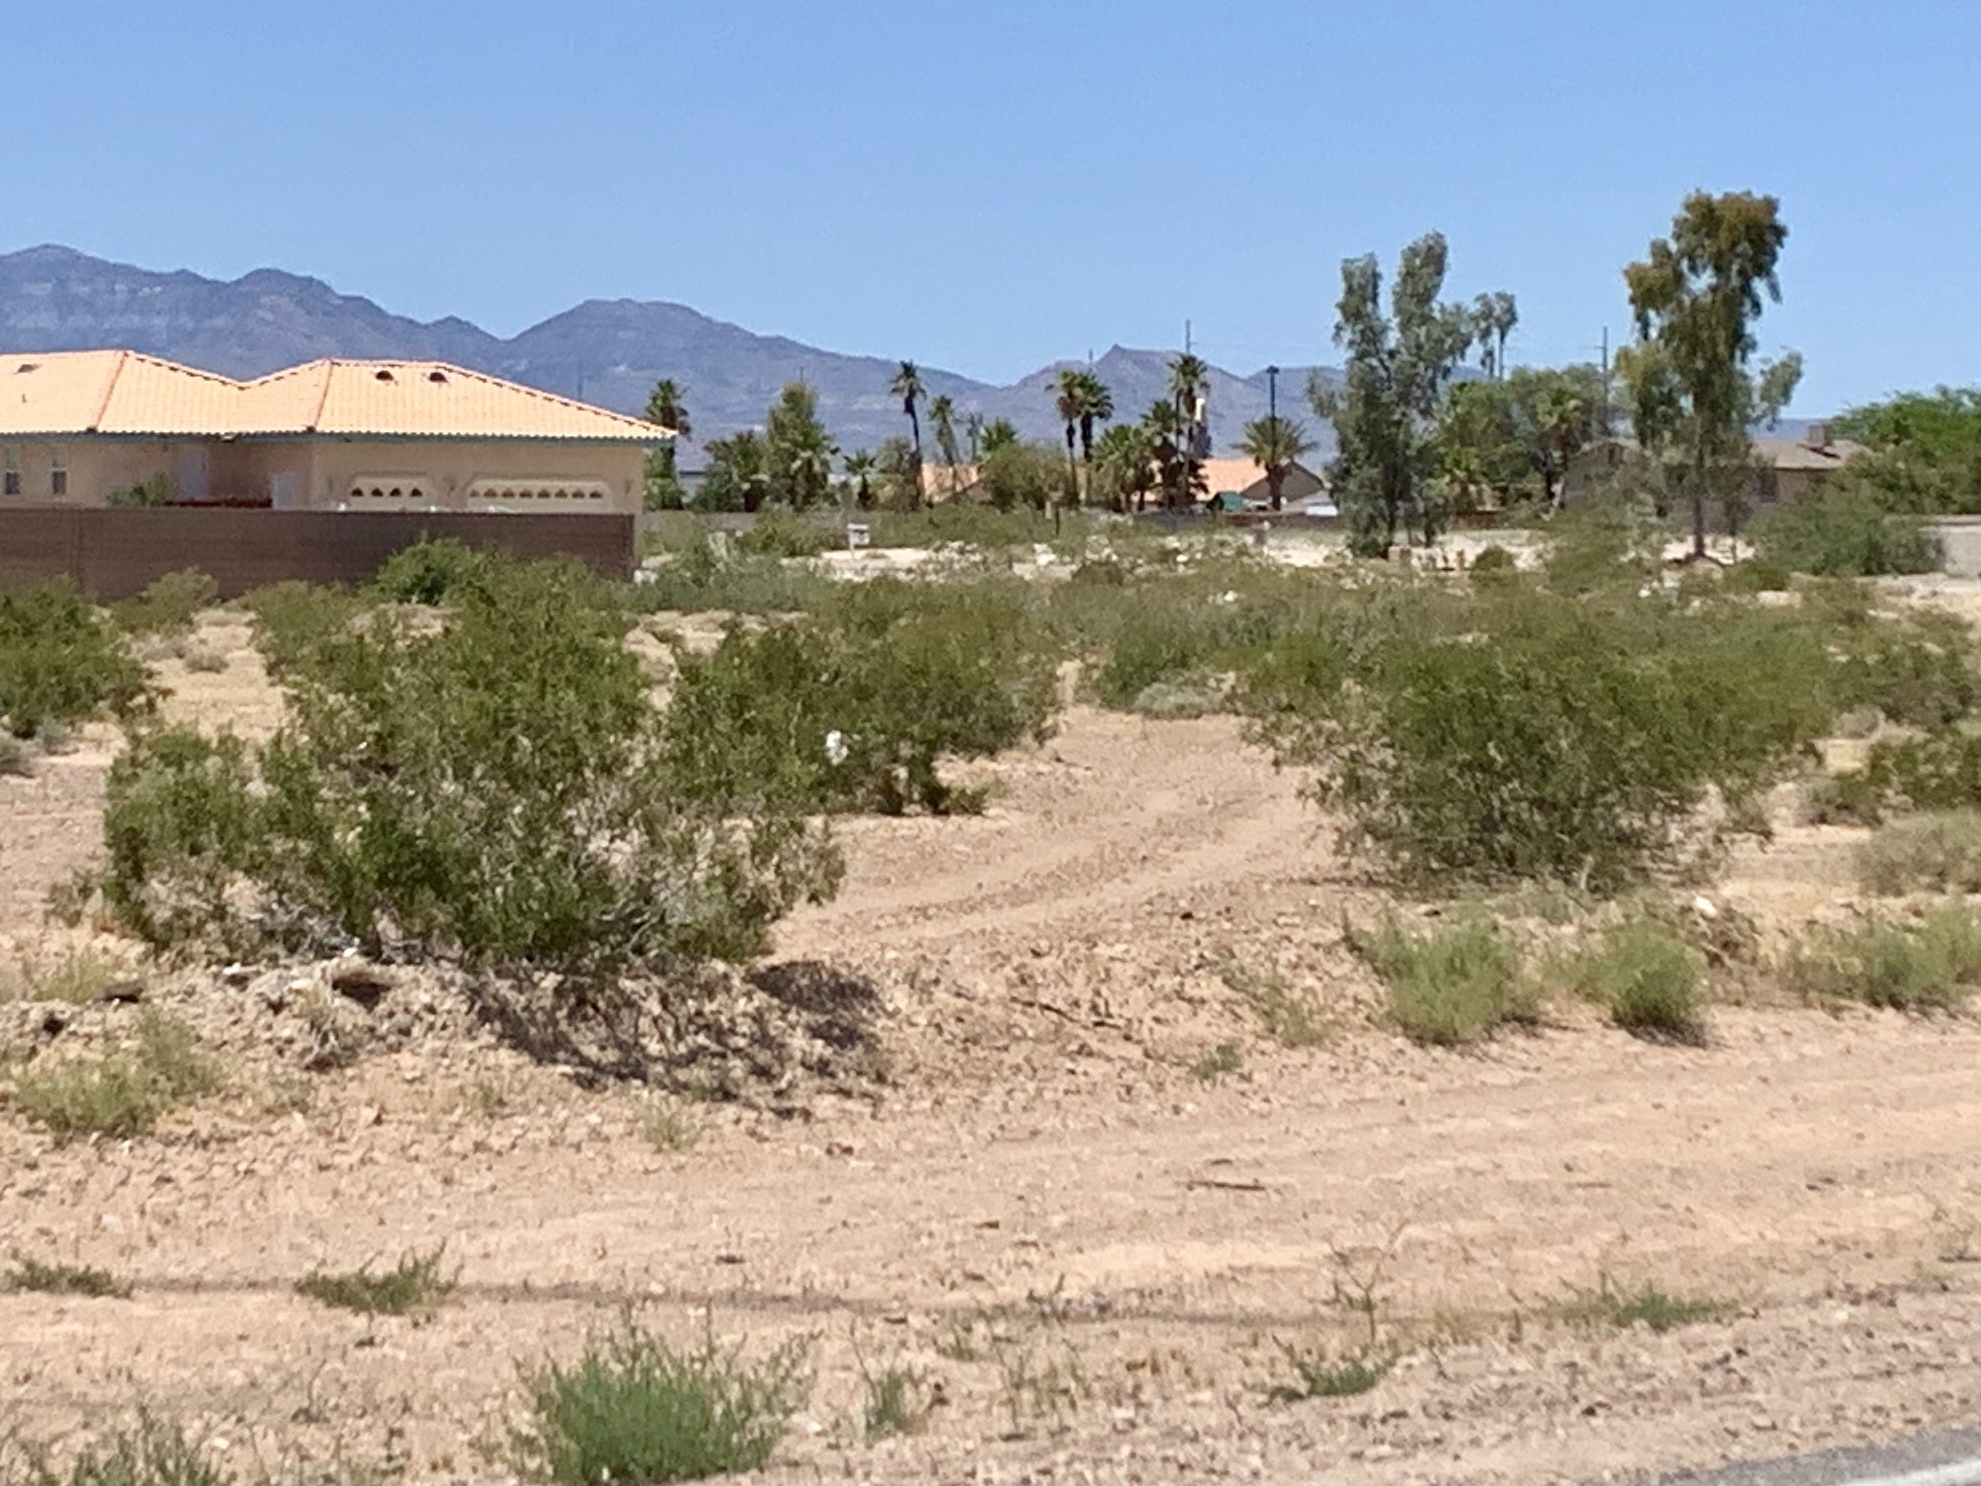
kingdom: Plantae
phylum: Tracheophyta
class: Magnoliopsida
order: Zygophyllales
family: Zygophyllaceae
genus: Larrea
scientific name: Larrea tridentata
